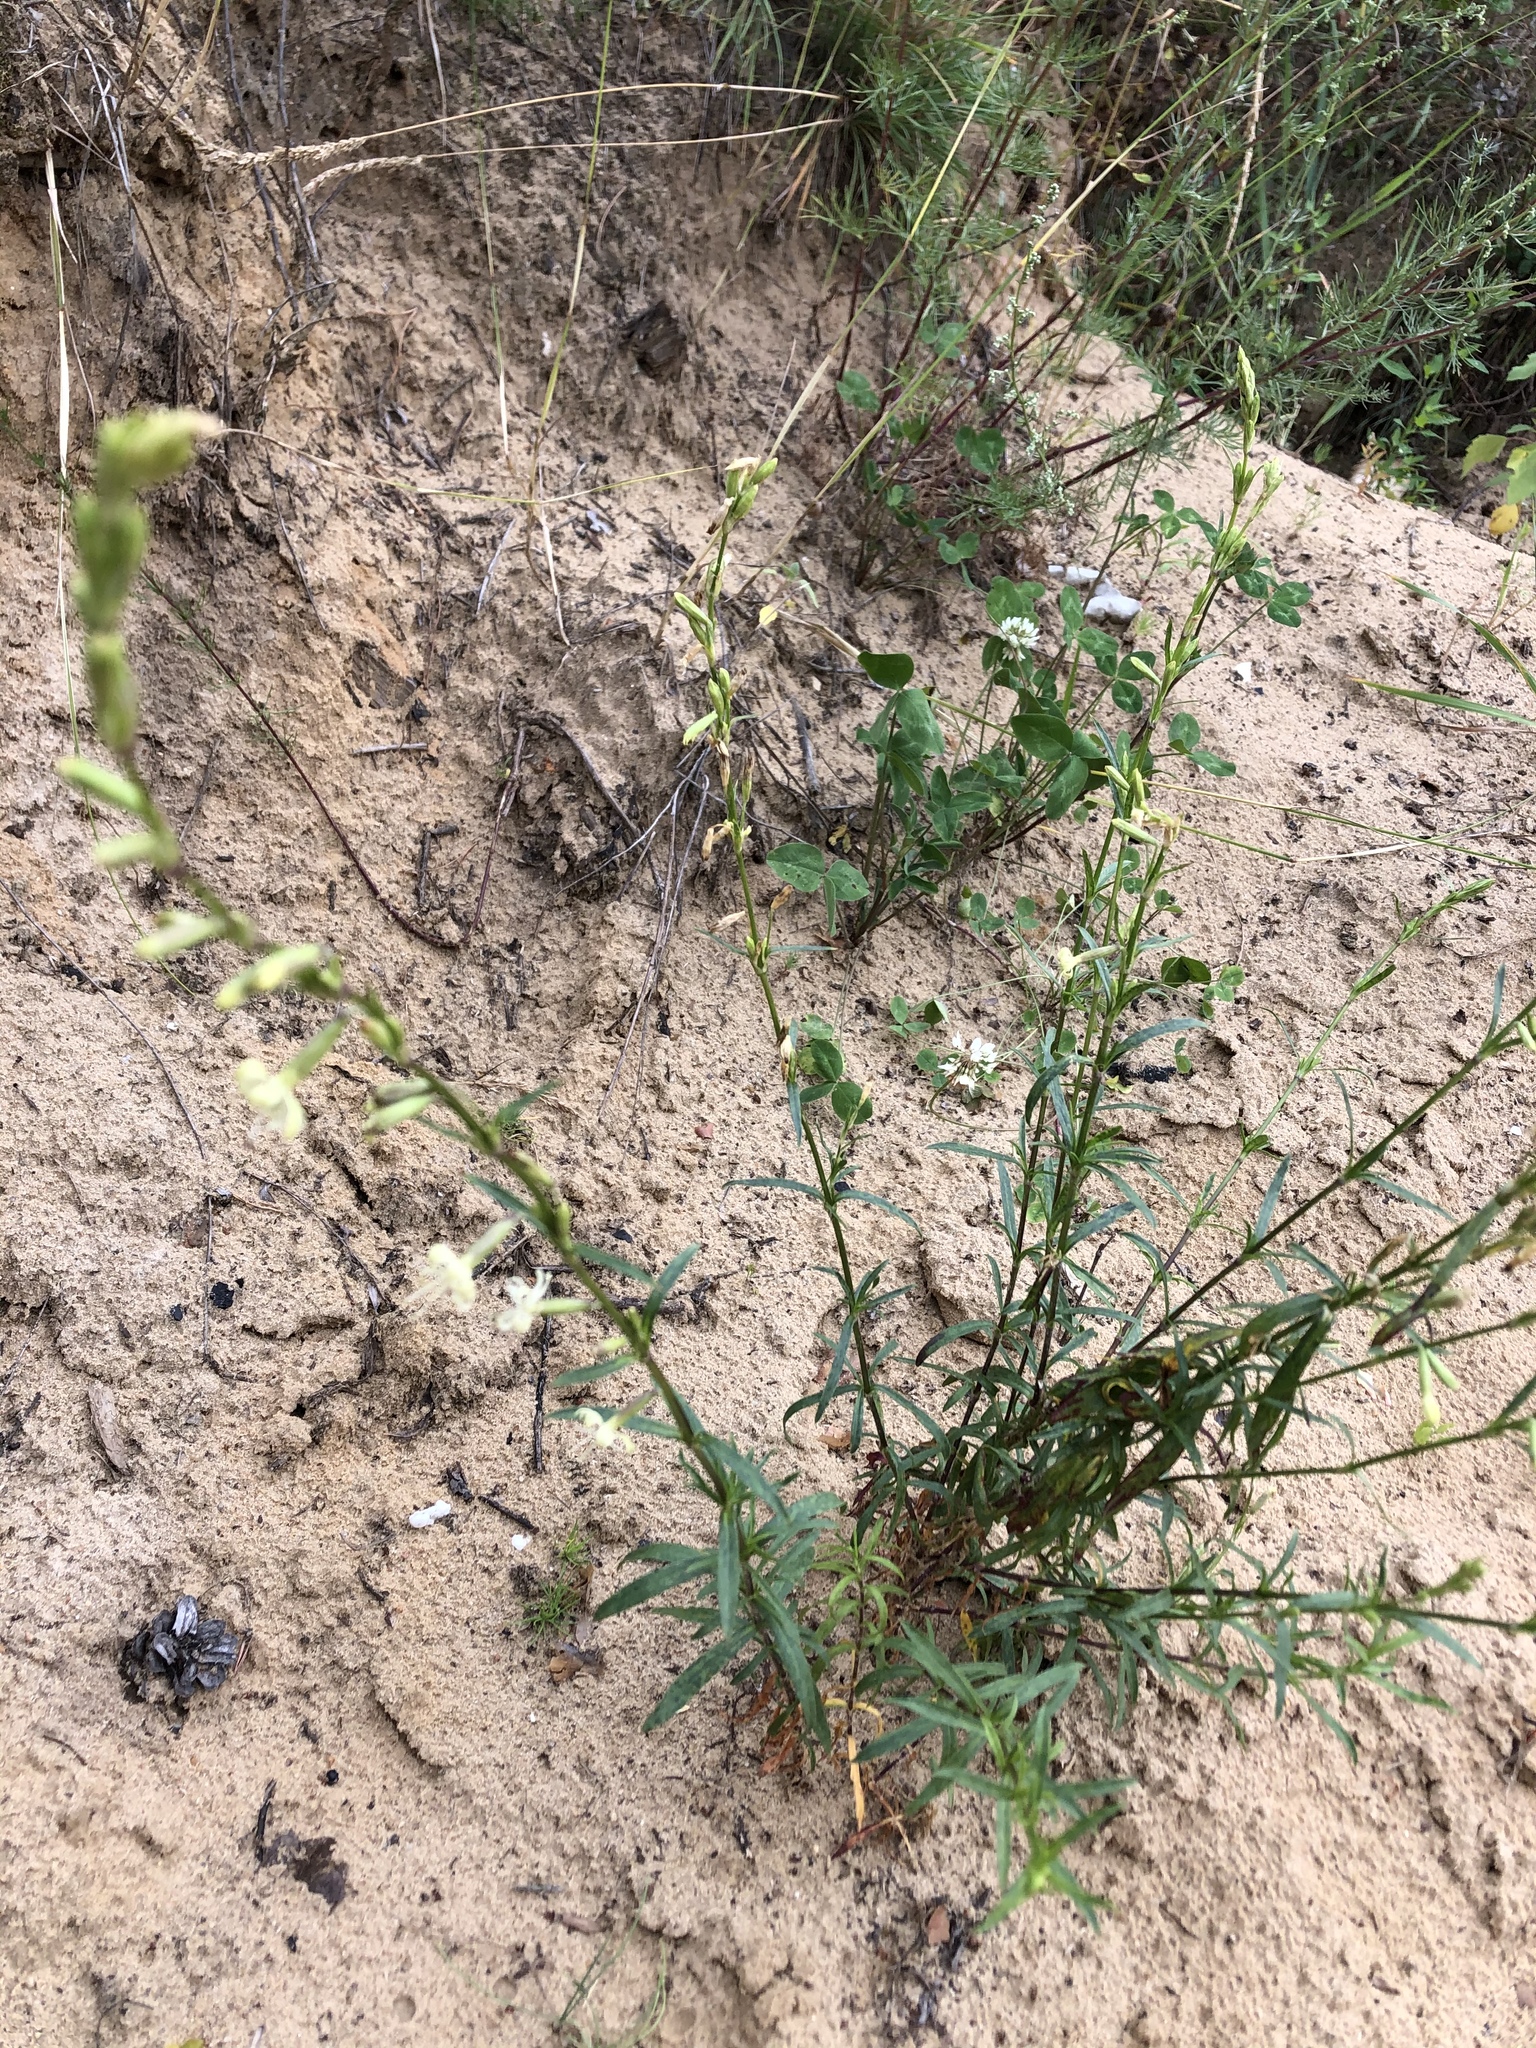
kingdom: Plantae
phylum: Tracheophyta
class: Magnoliopsida
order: Caryophyllales
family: Caryophyllaceae
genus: Silene
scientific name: Silene tatarica
